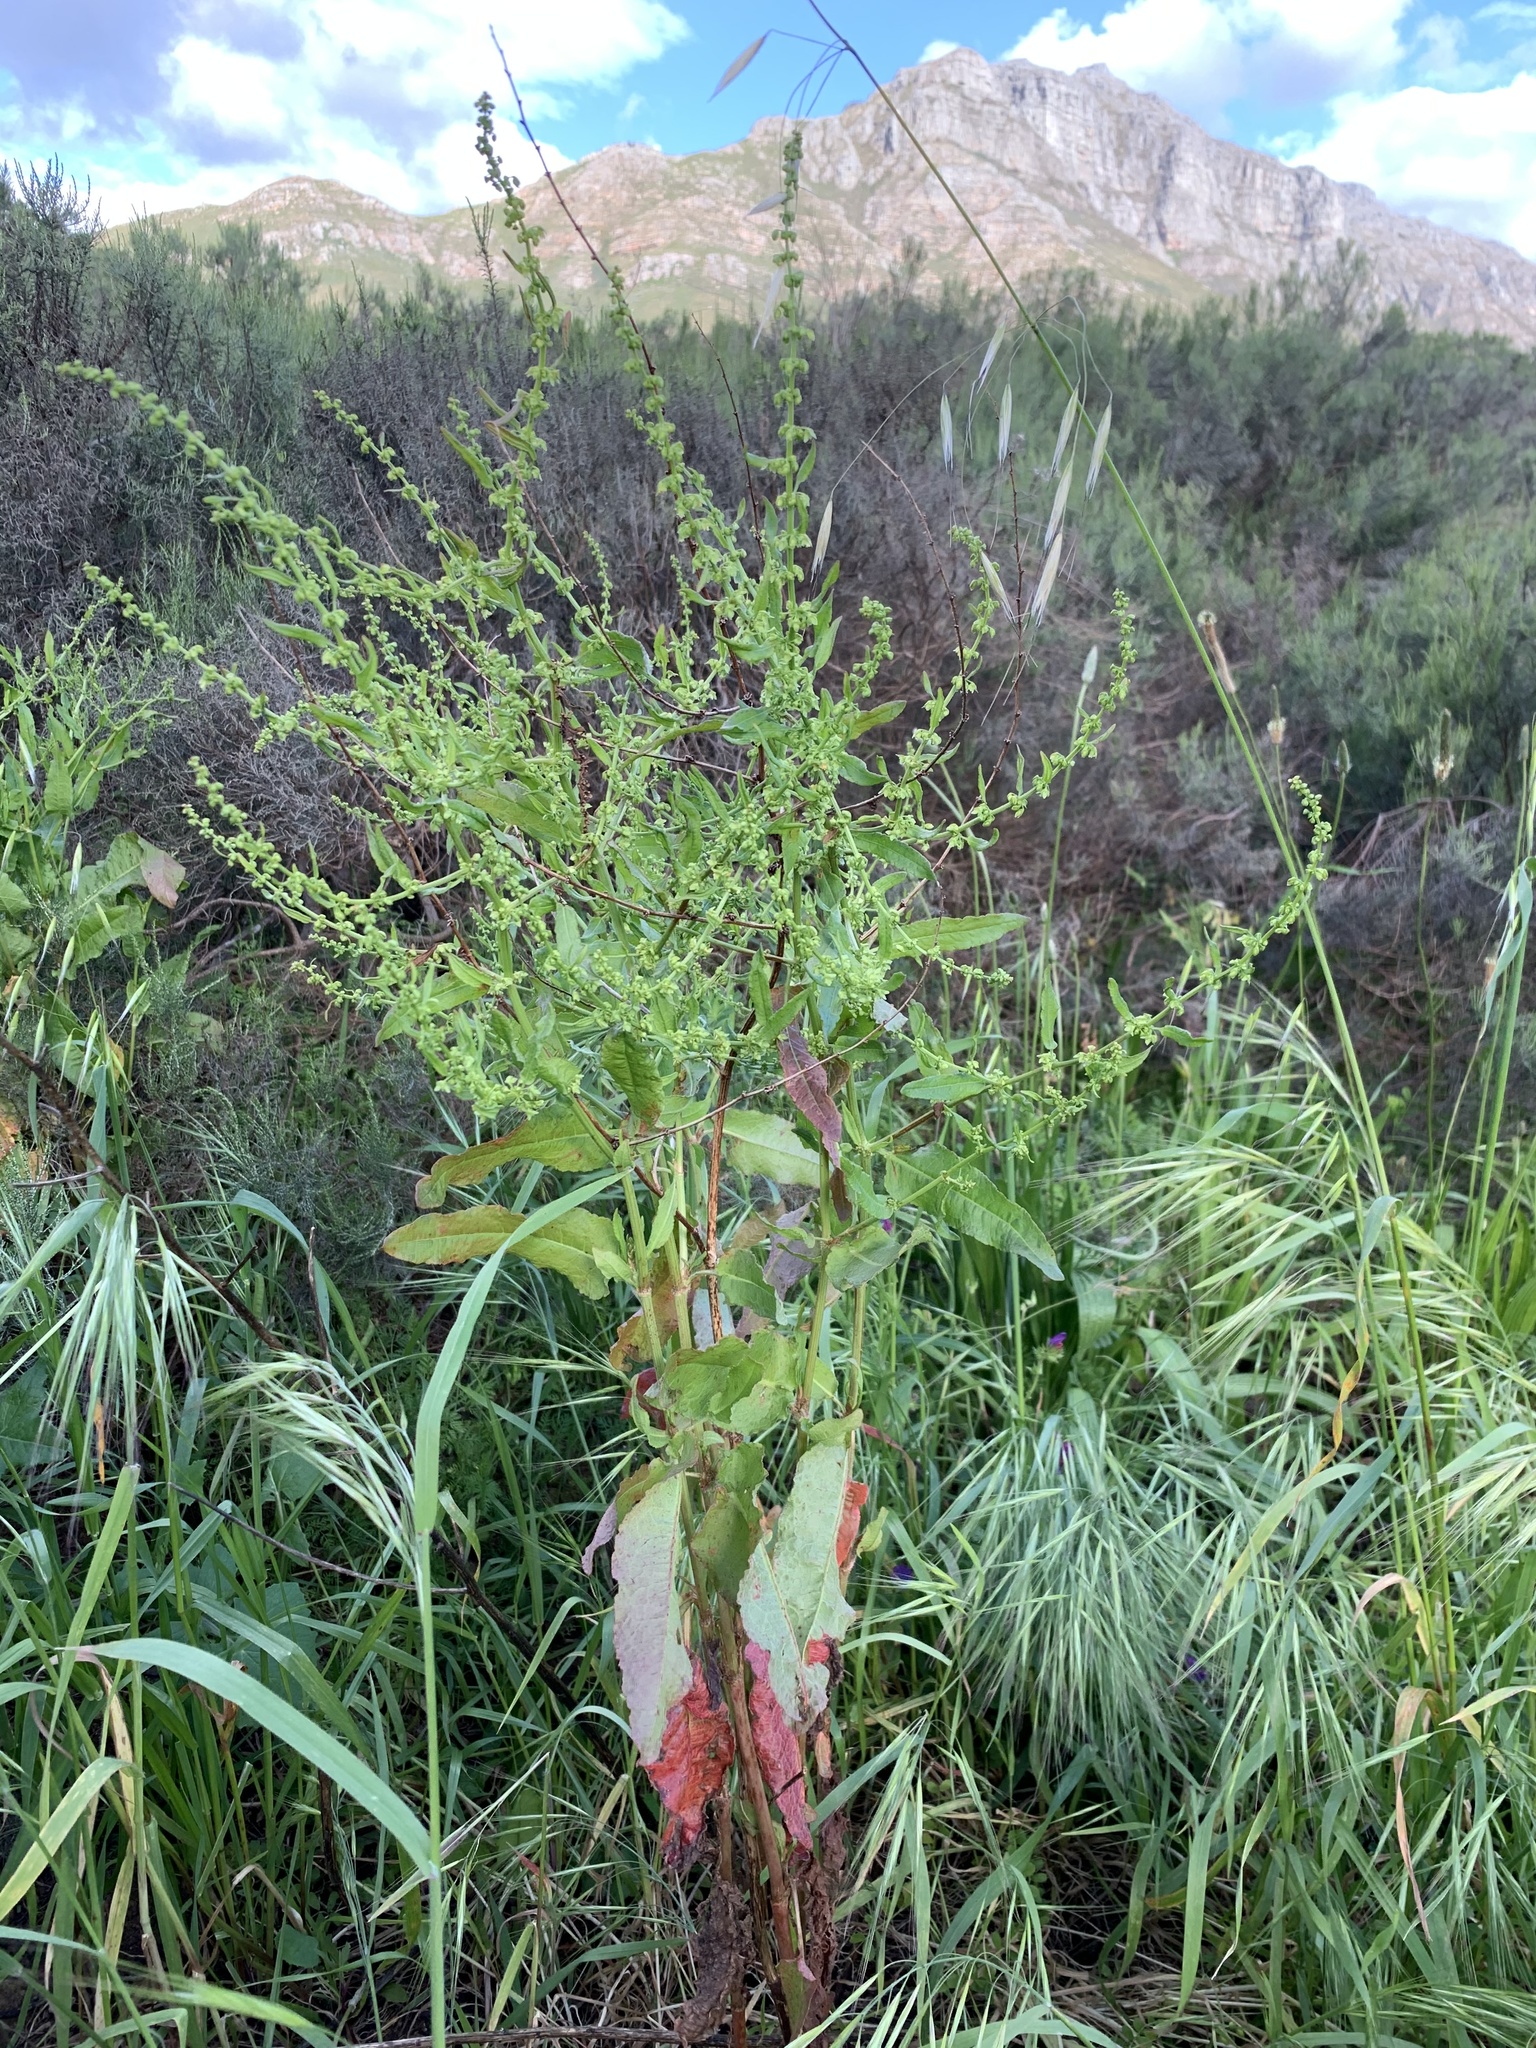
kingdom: Plantae
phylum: Tracheophyta
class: Magnoliopsida
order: Caryophyllales
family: Amaranthaceae
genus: Dysphania
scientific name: Dysphania ambrosioides
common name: Wormseed
